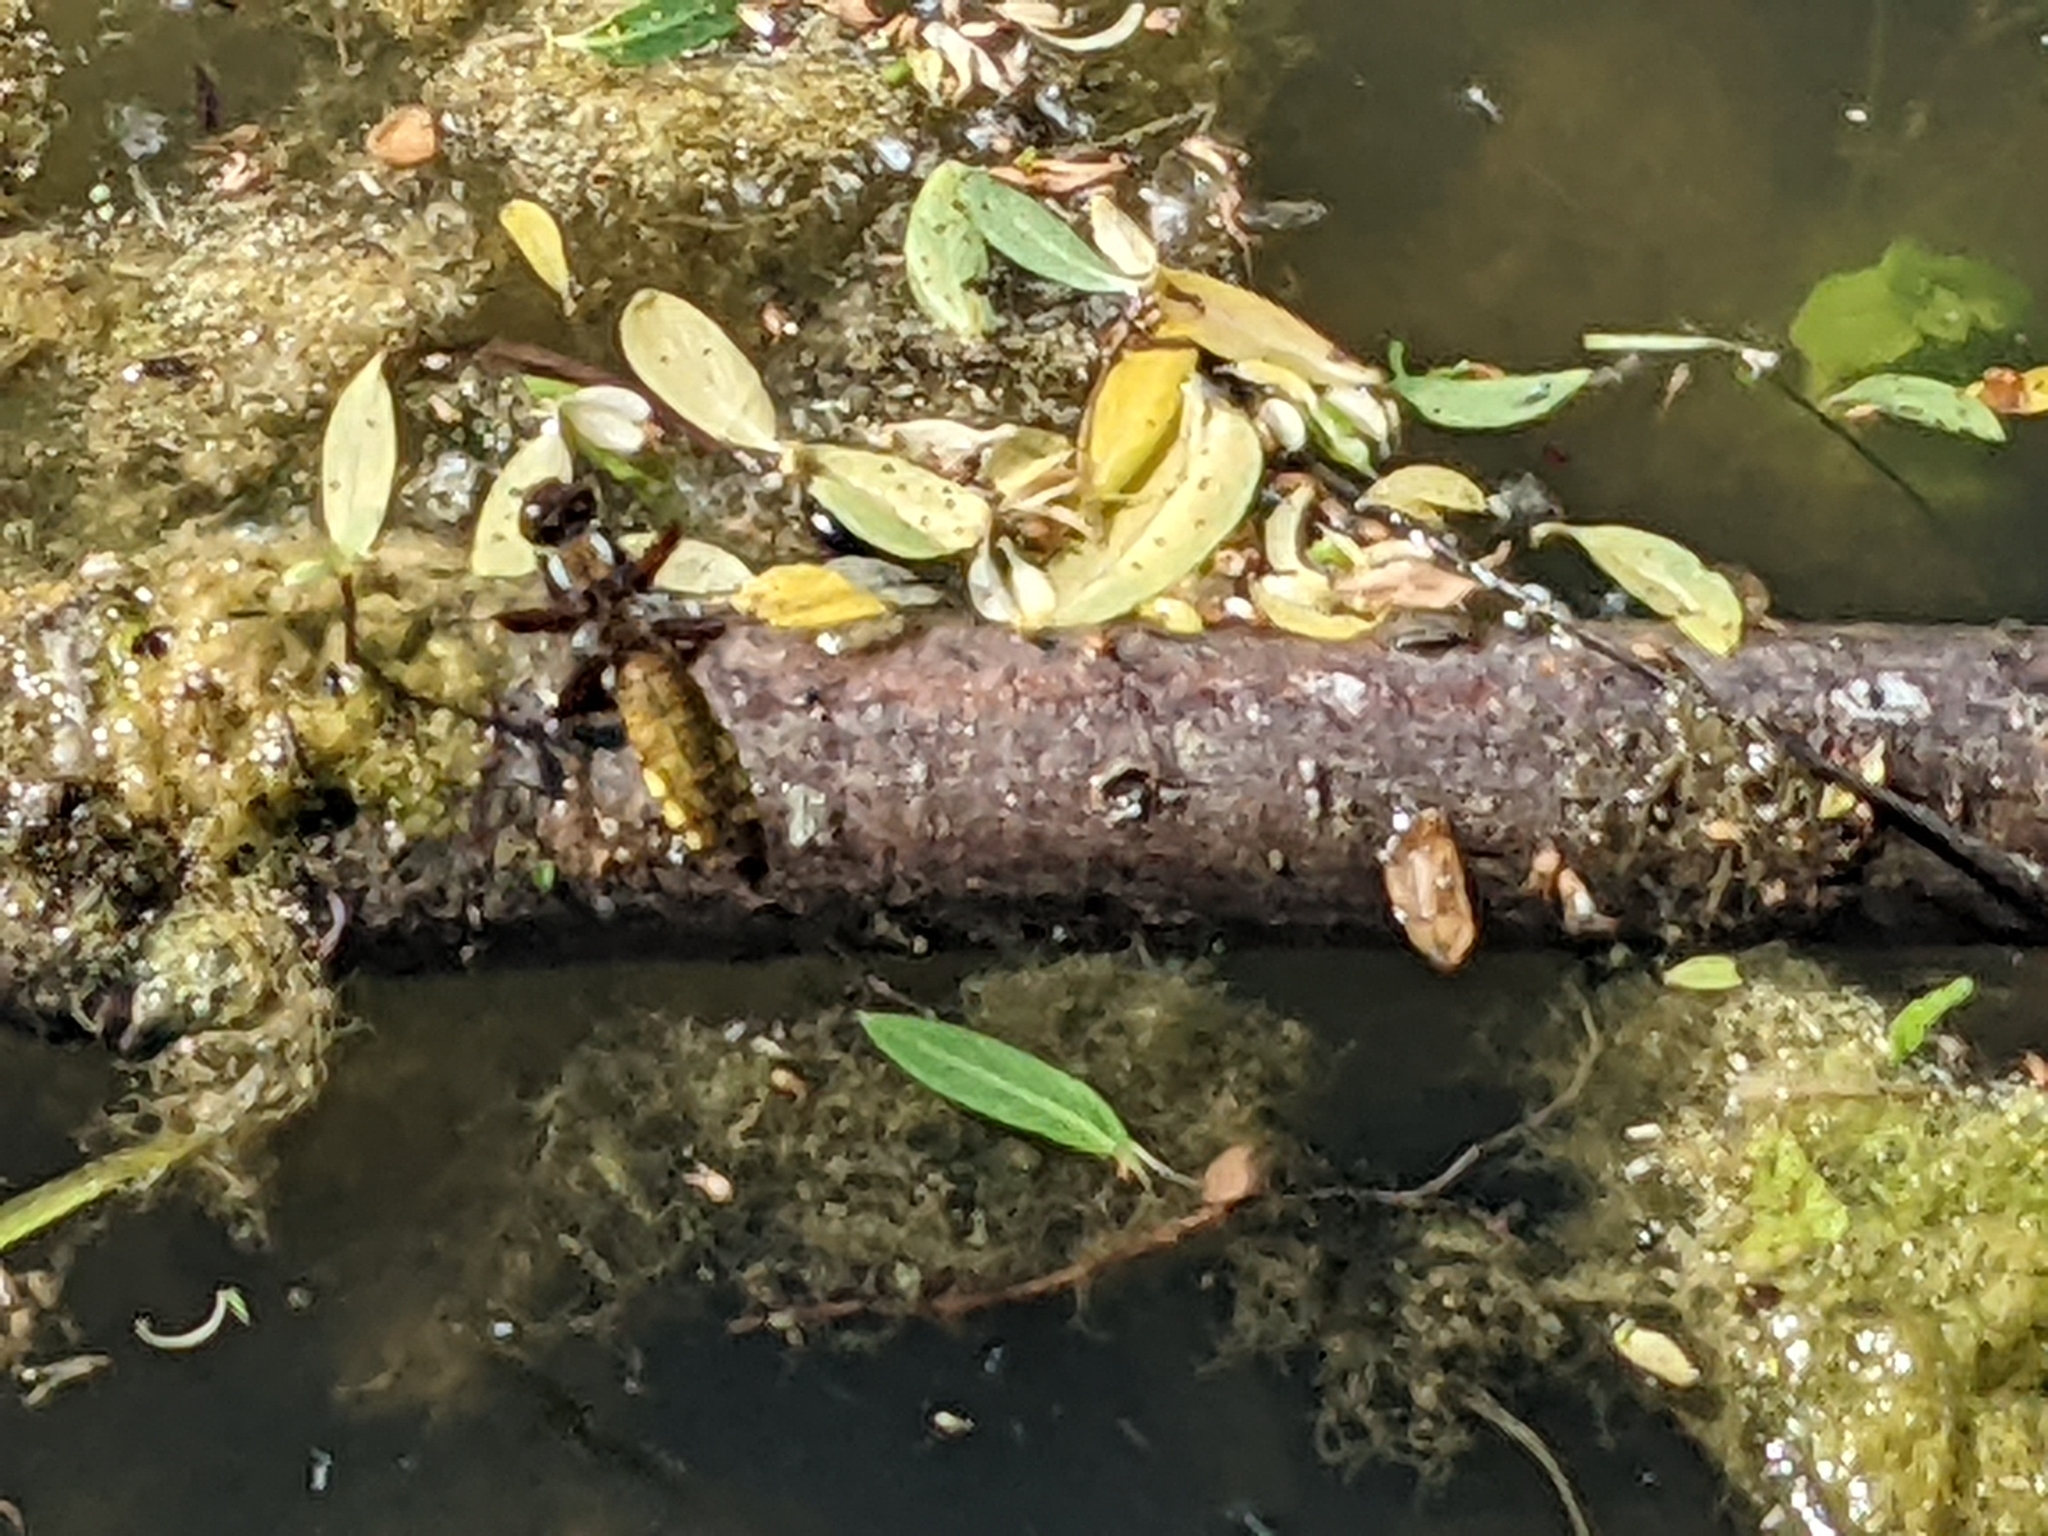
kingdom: Animalia
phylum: Arthropoda
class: Insecta
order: Odonata
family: Libellulidae
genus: Libellula
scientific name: Libellula depressa
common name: Broad-bodied chaser
